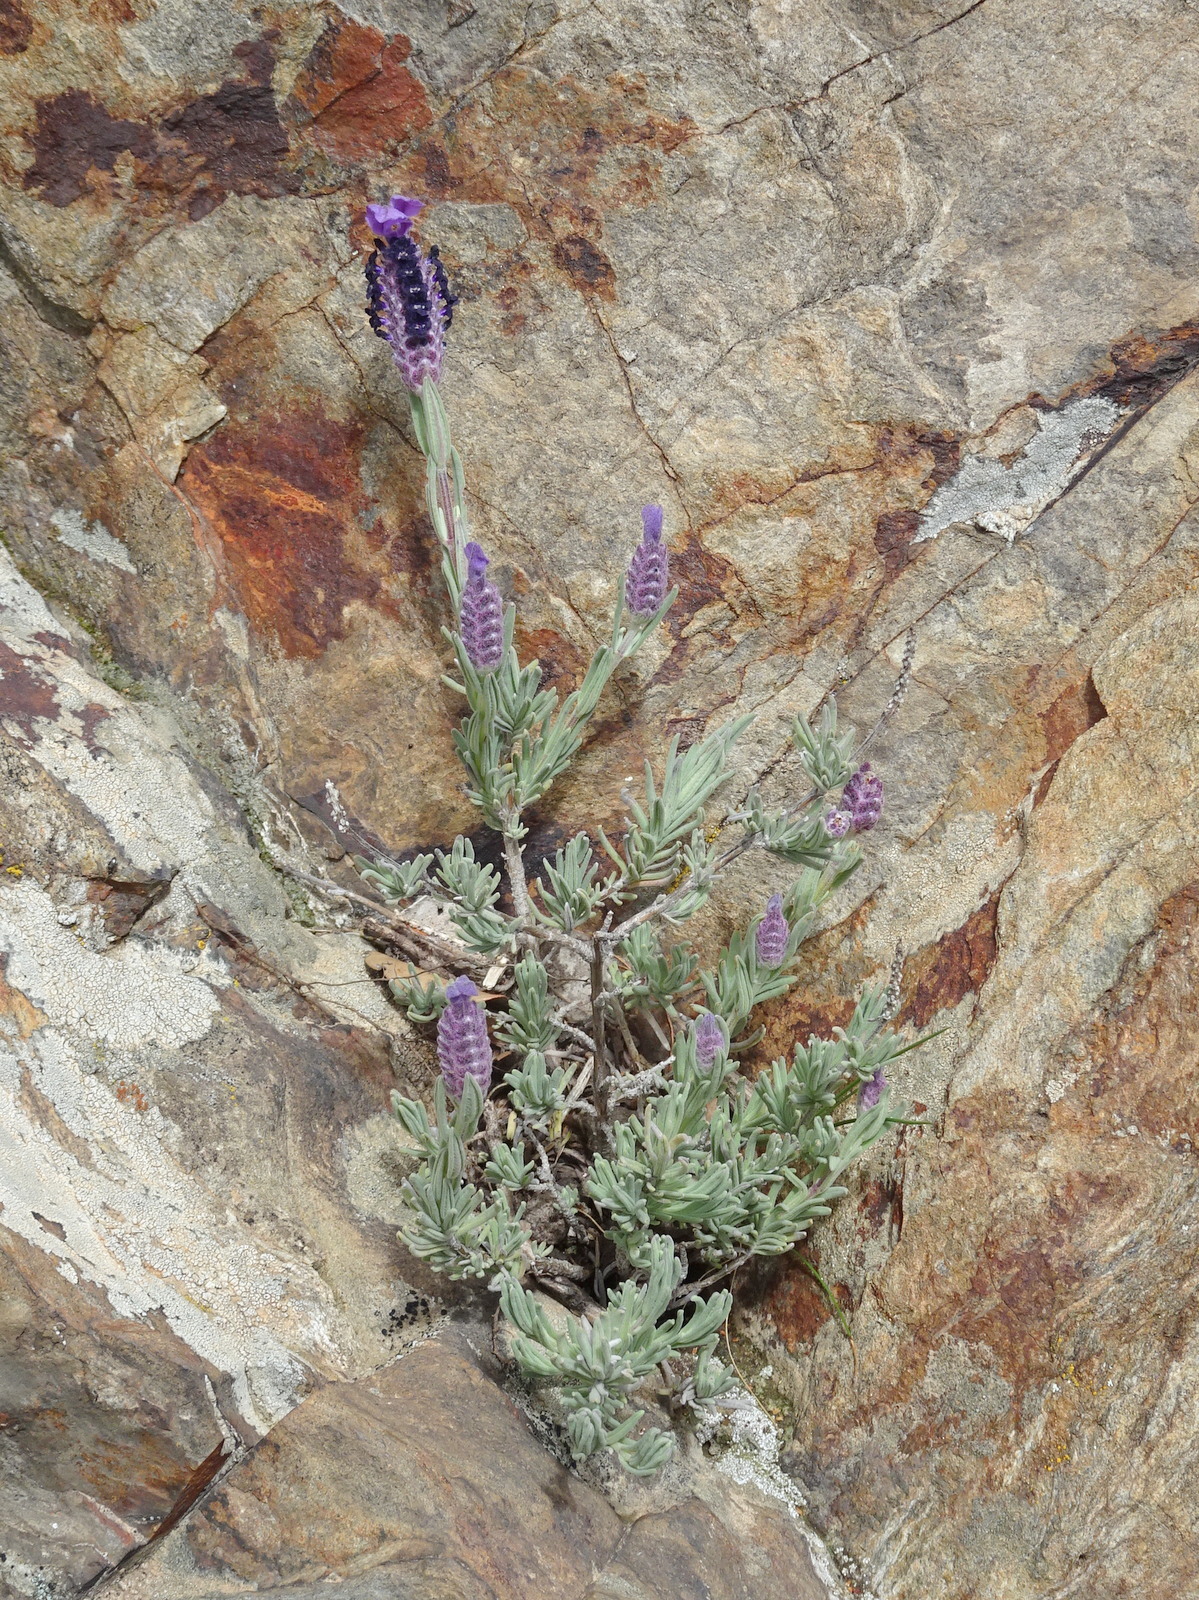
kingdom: Plantae
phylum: Tracheophyta
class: Magnoliopsida
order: Lamiales
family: Lamiaceae
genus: Lavandula
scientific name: Lavandula stoechas
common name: French lavender
